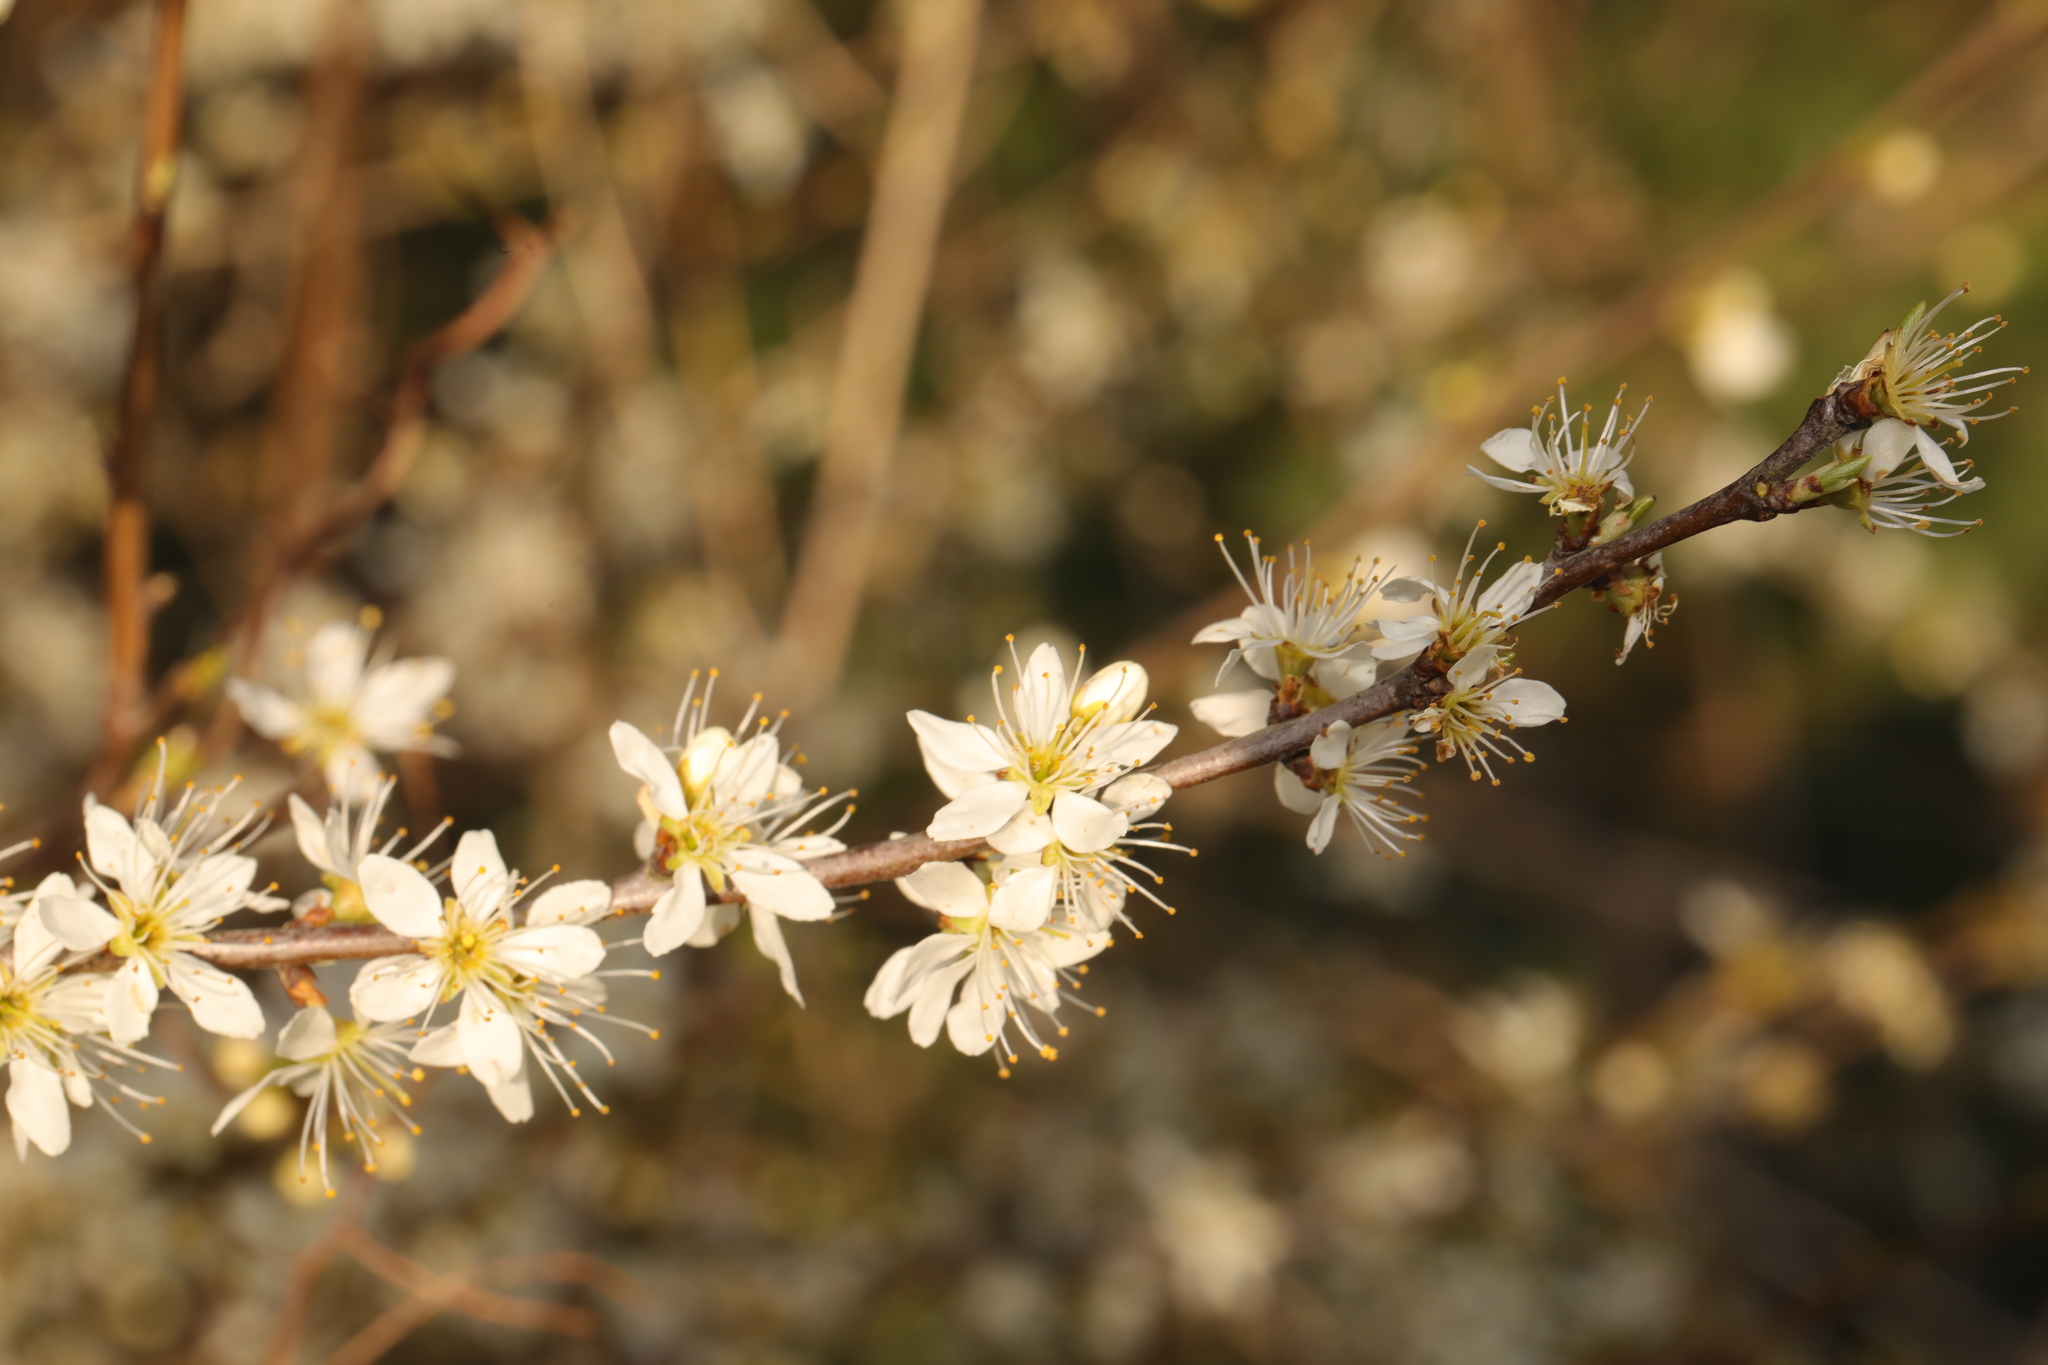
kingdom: Plantae
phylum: Tracheophyta
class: Magnoliopsida
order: Rosales
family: Rosaceae
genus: Prunus
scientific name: Prunus spinosa
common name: Blackthorn
